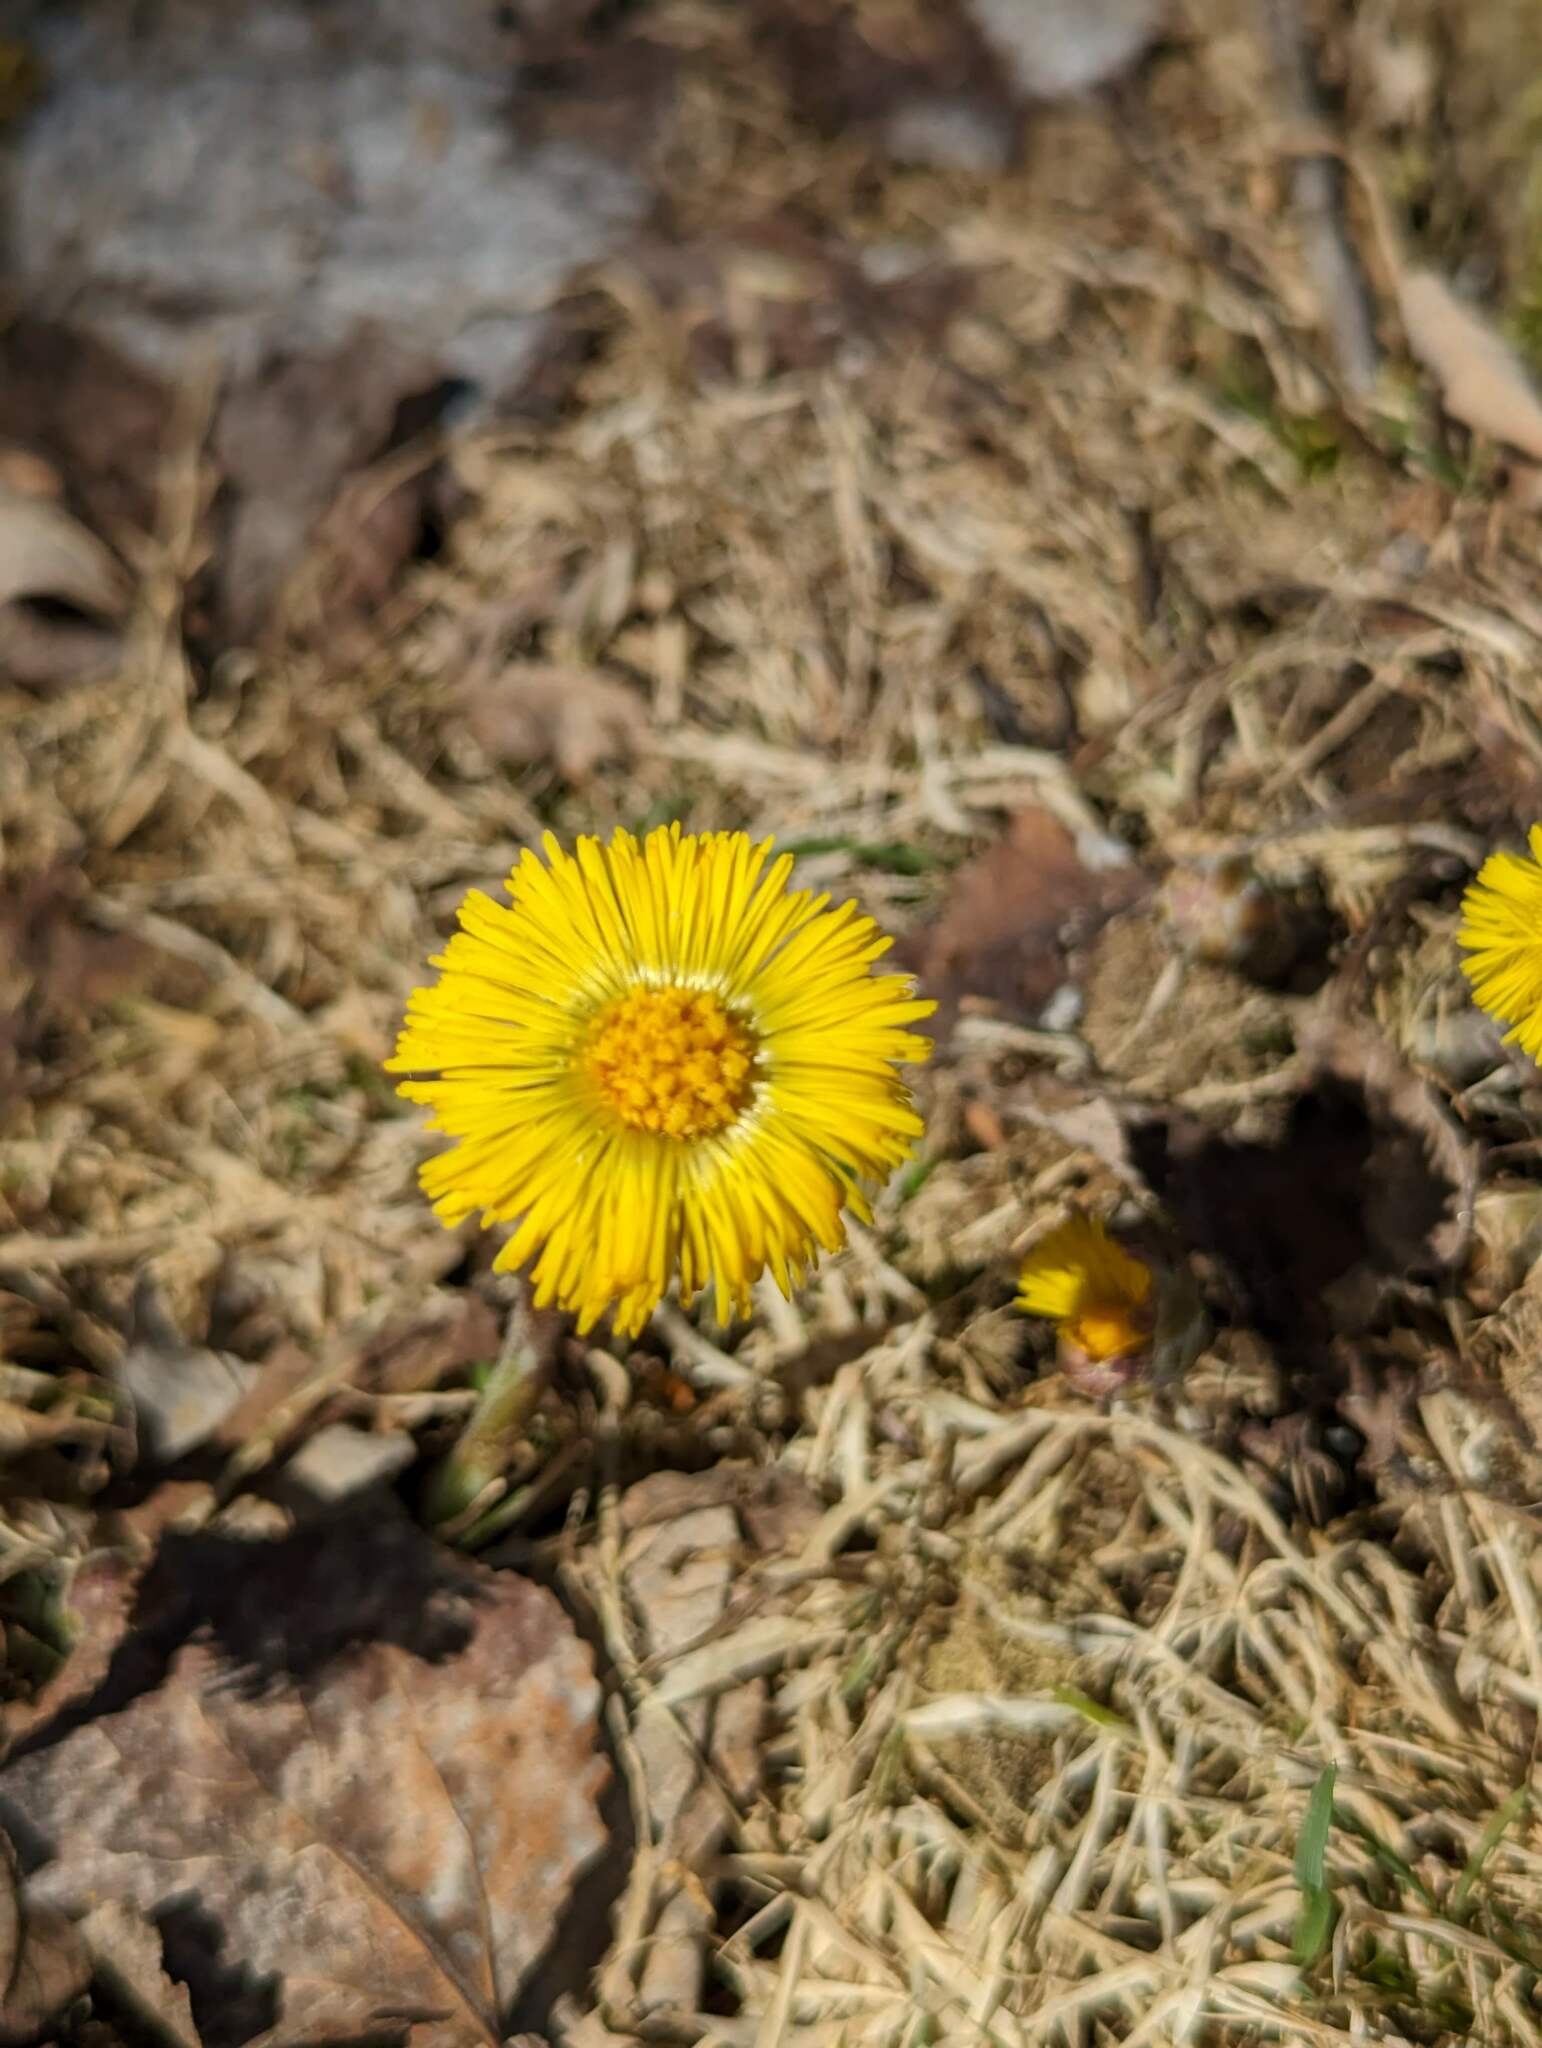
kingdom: Plantae
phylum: Tracheophyta
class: Magnoliopsida
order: Asterales
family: Asteraceae
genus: Tussilago
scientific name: Tussilago farfara
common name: Coltsfoot
